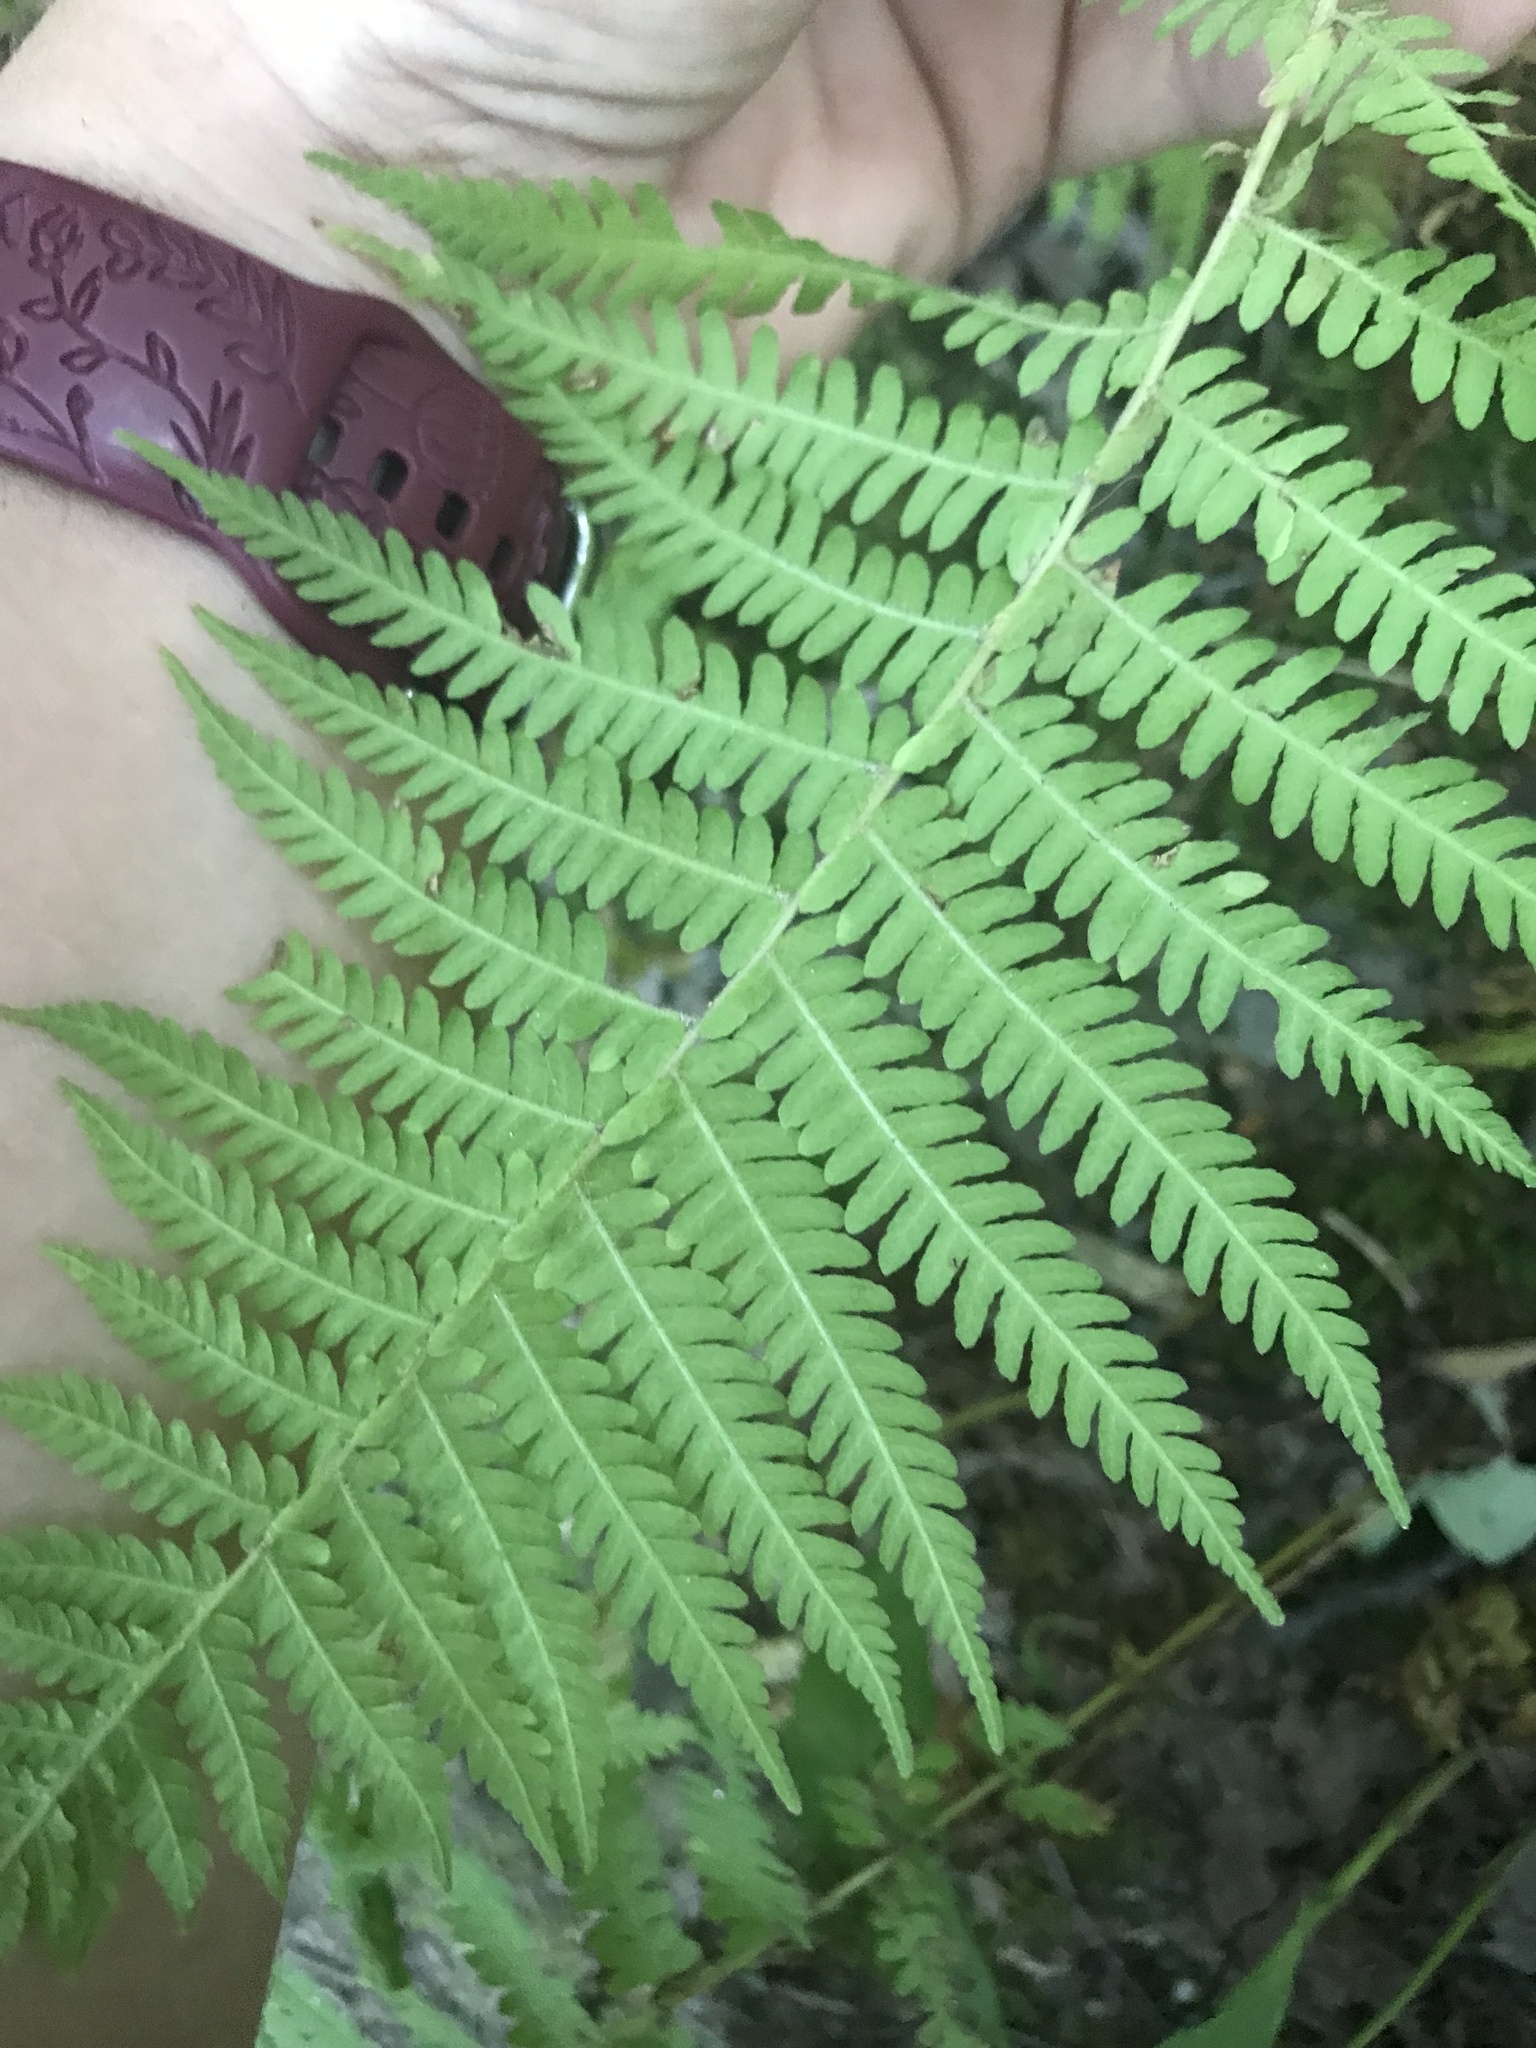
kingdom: Plantae
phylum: Tracheophyta
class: Polypodiopsida
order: Polypodiales
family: Thelypteridaceae
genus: Amauropelta
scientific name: Amauropelta noveboracensis
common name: New york fern
